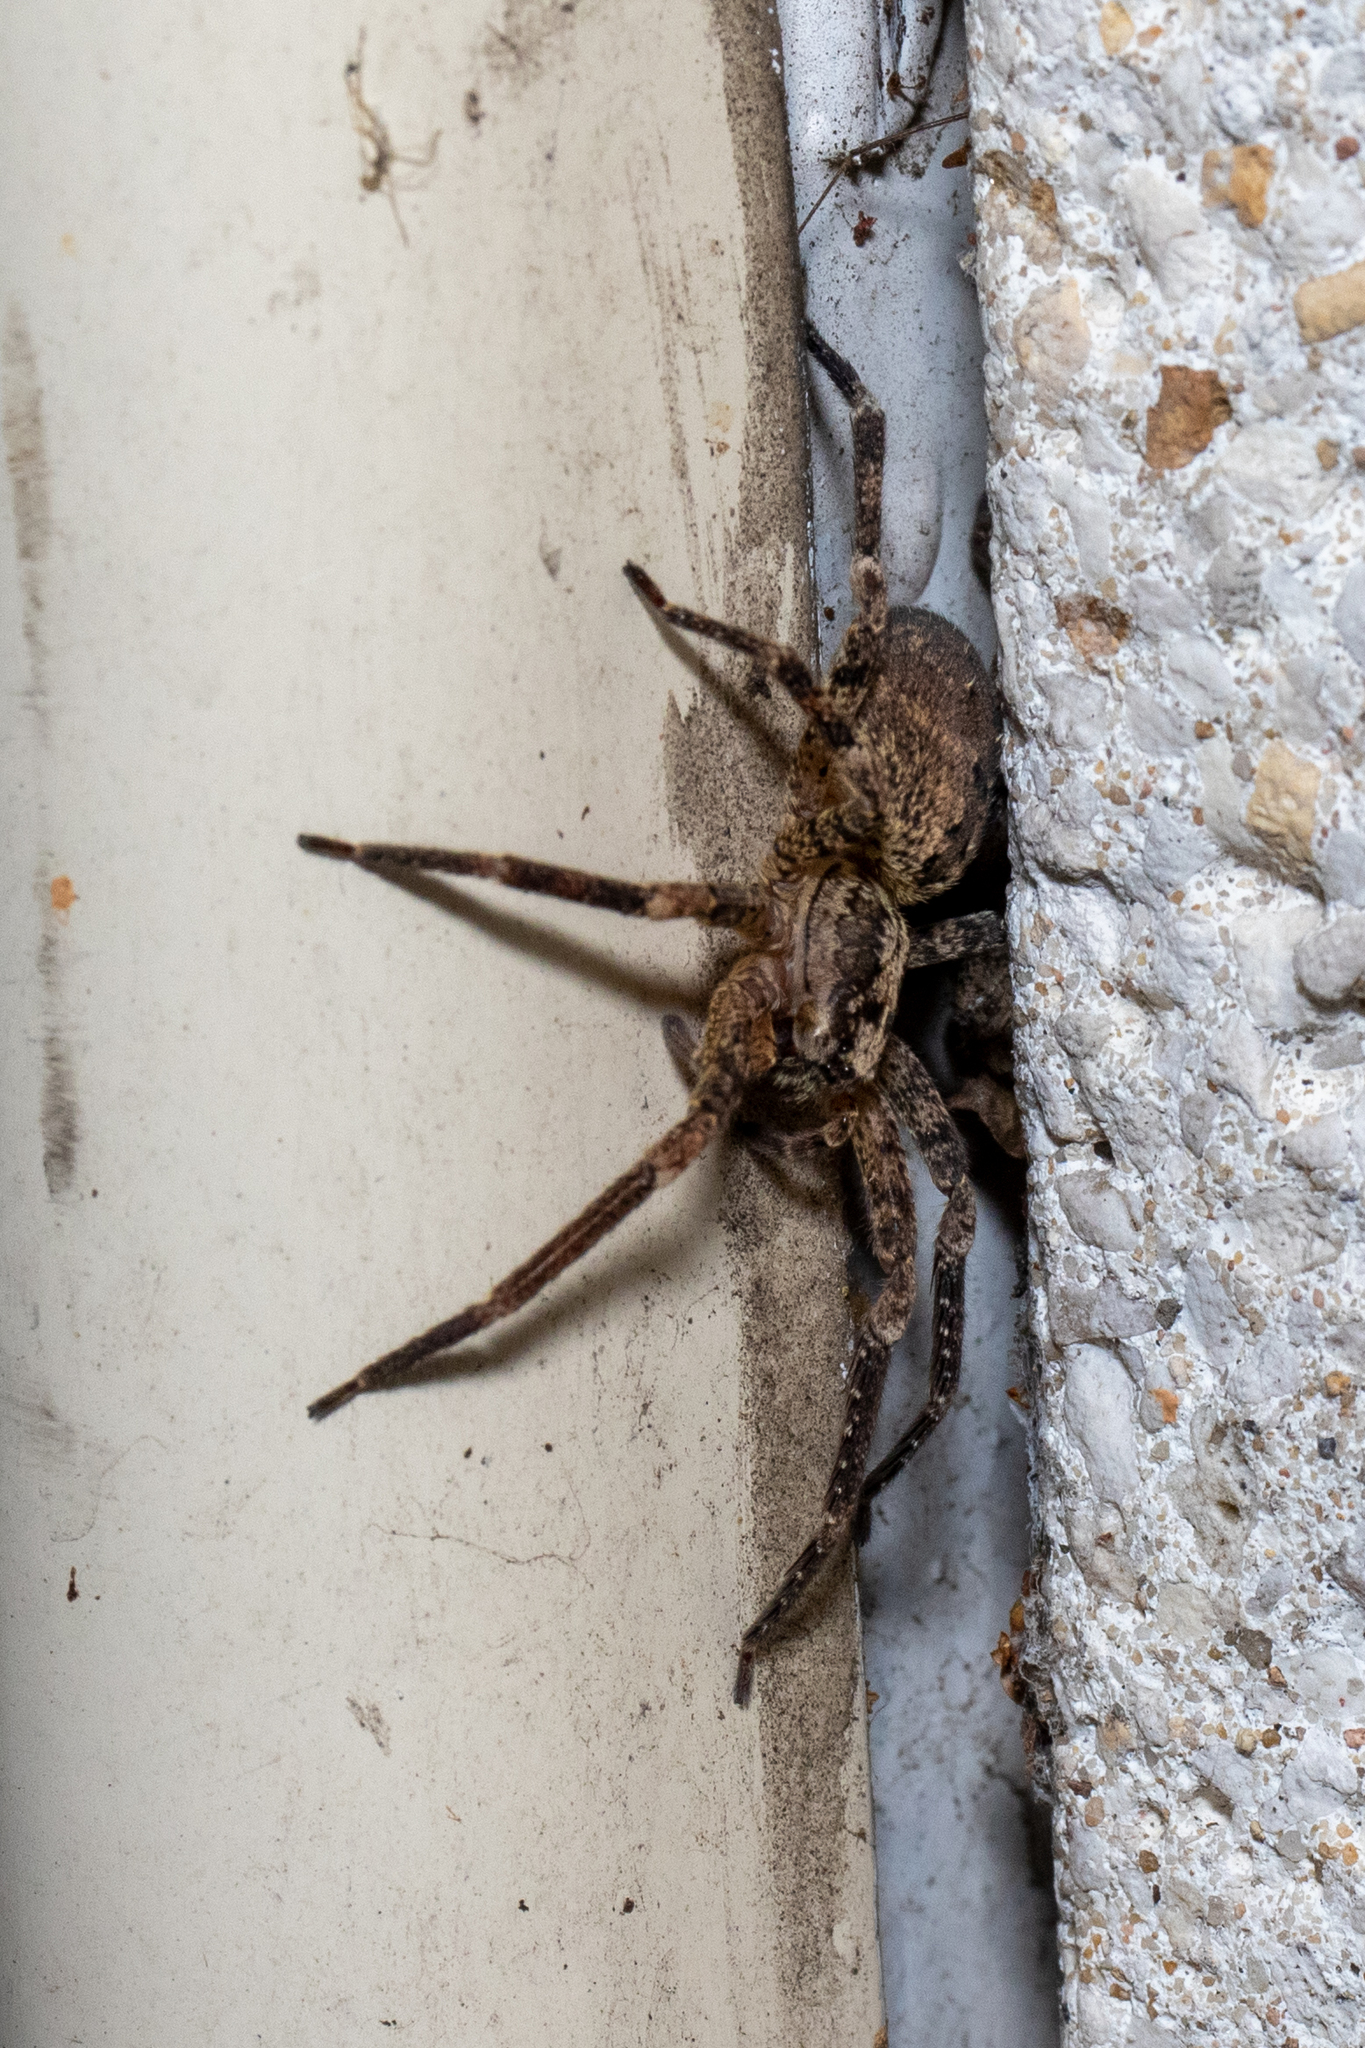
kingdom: Animalia
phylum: Arthropoda
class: Arachnida
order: Araneae
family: Zoropsidae
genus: Zoropsis
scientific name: Zoropsis spinimana
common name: Zoropsid spider
